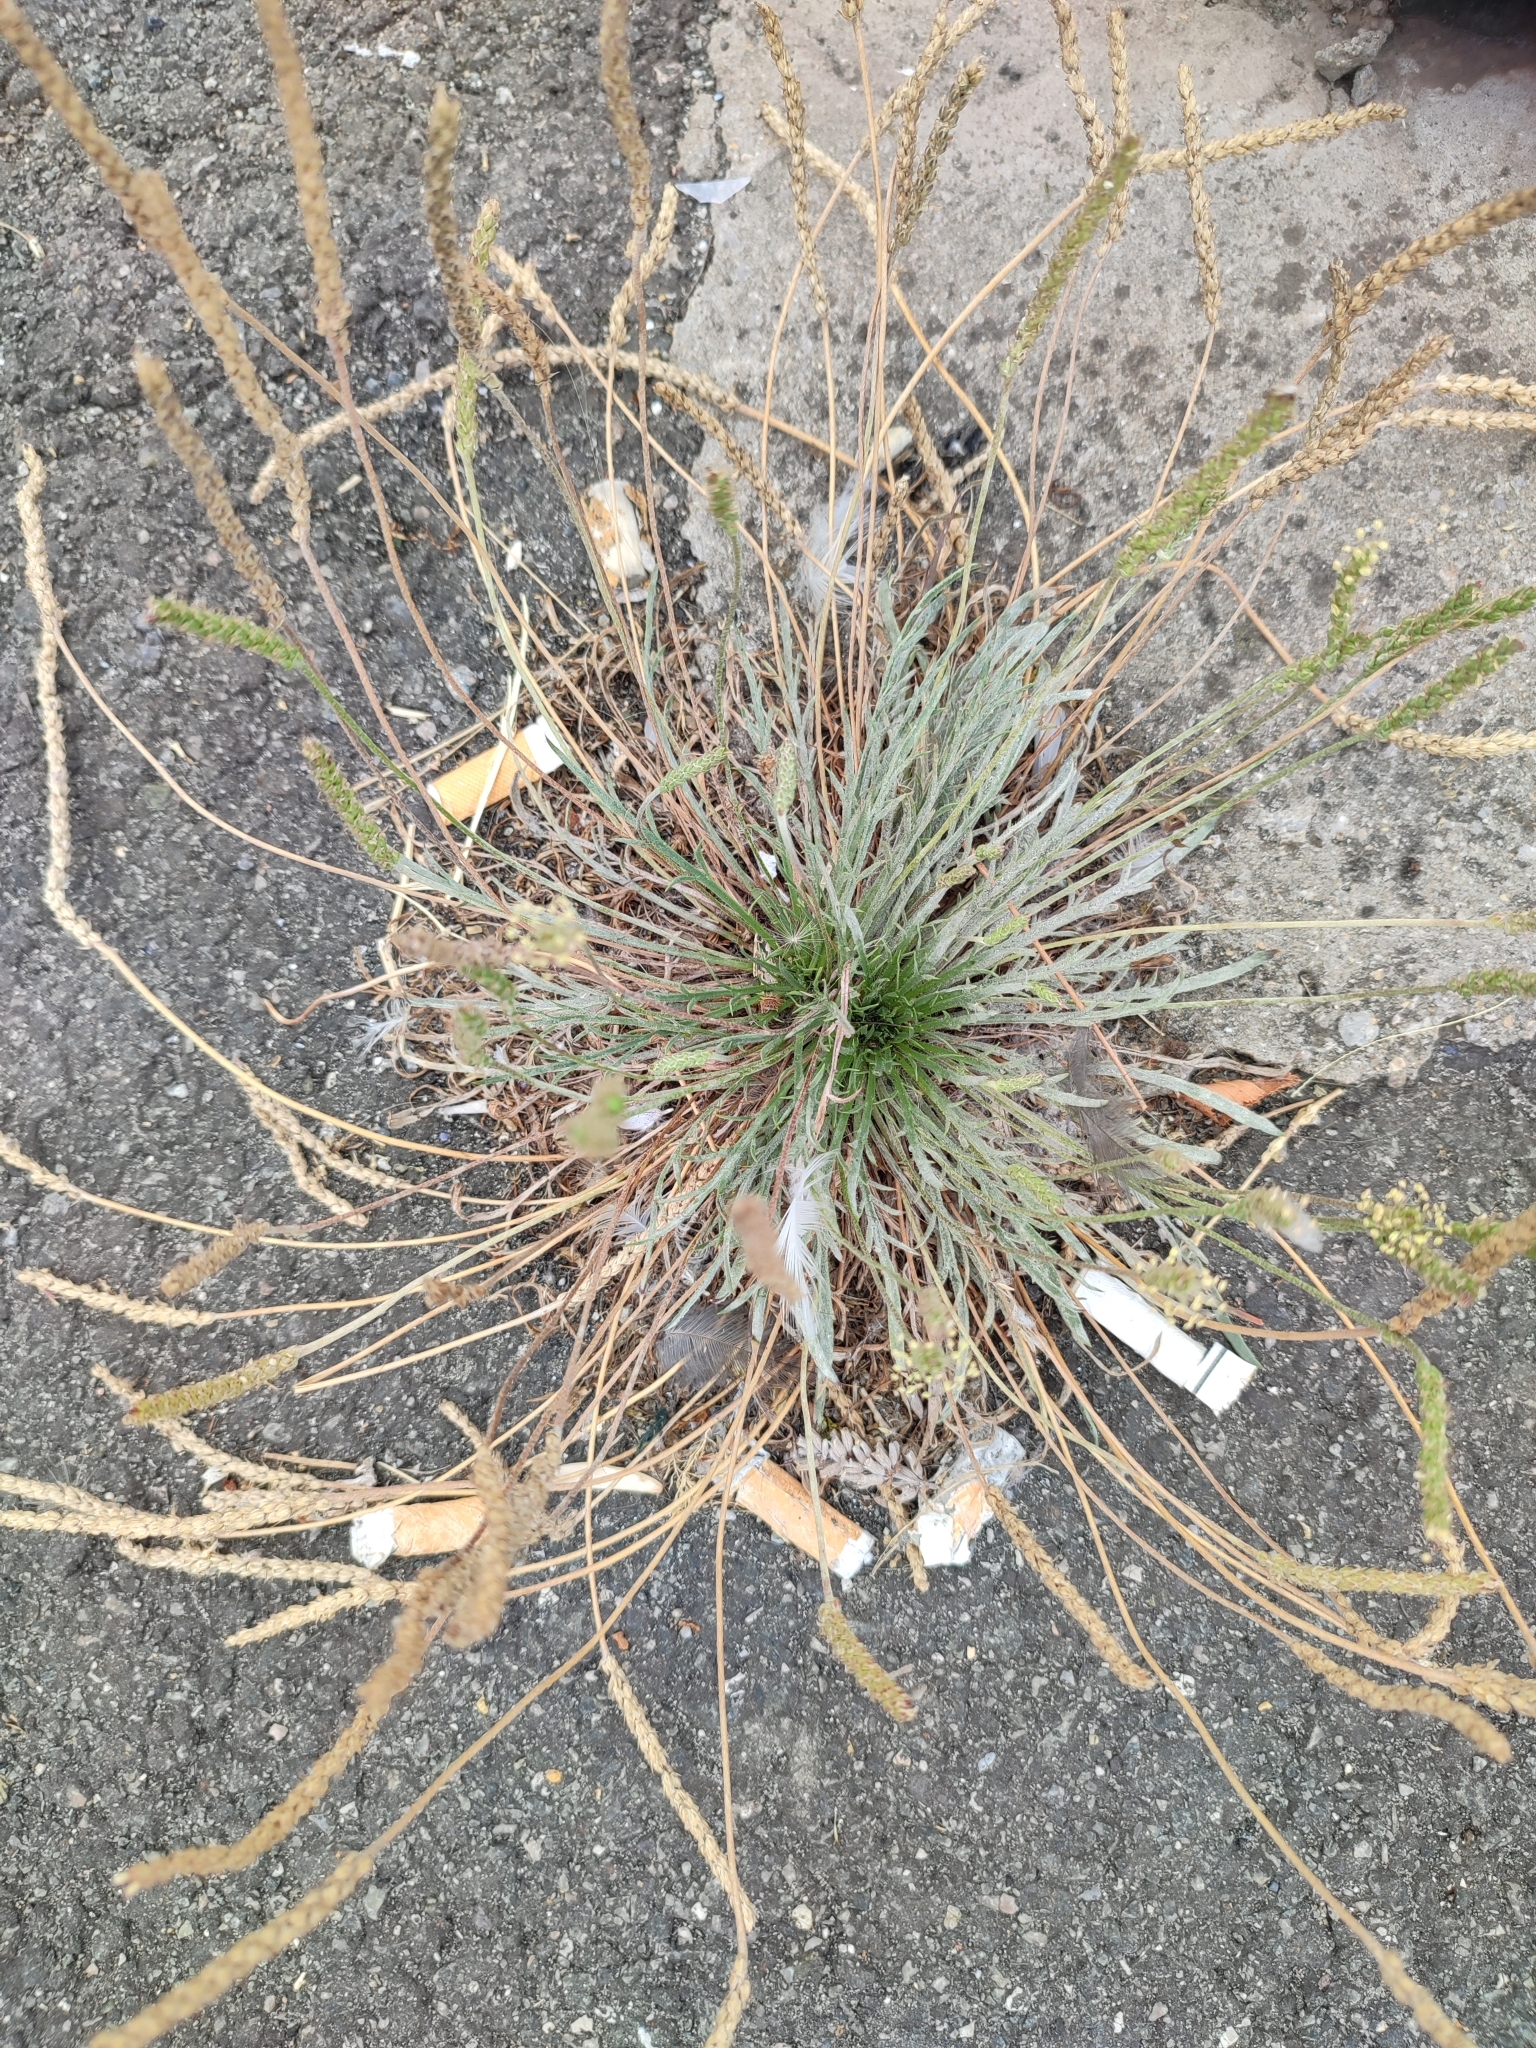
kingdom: Plantae
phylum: Tracheophyta
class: Magnoliopsida
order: Lamiales
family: Plantaginaceae
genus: Plantago
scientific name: Plantago coronopus
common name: Buck's-horn plantain
